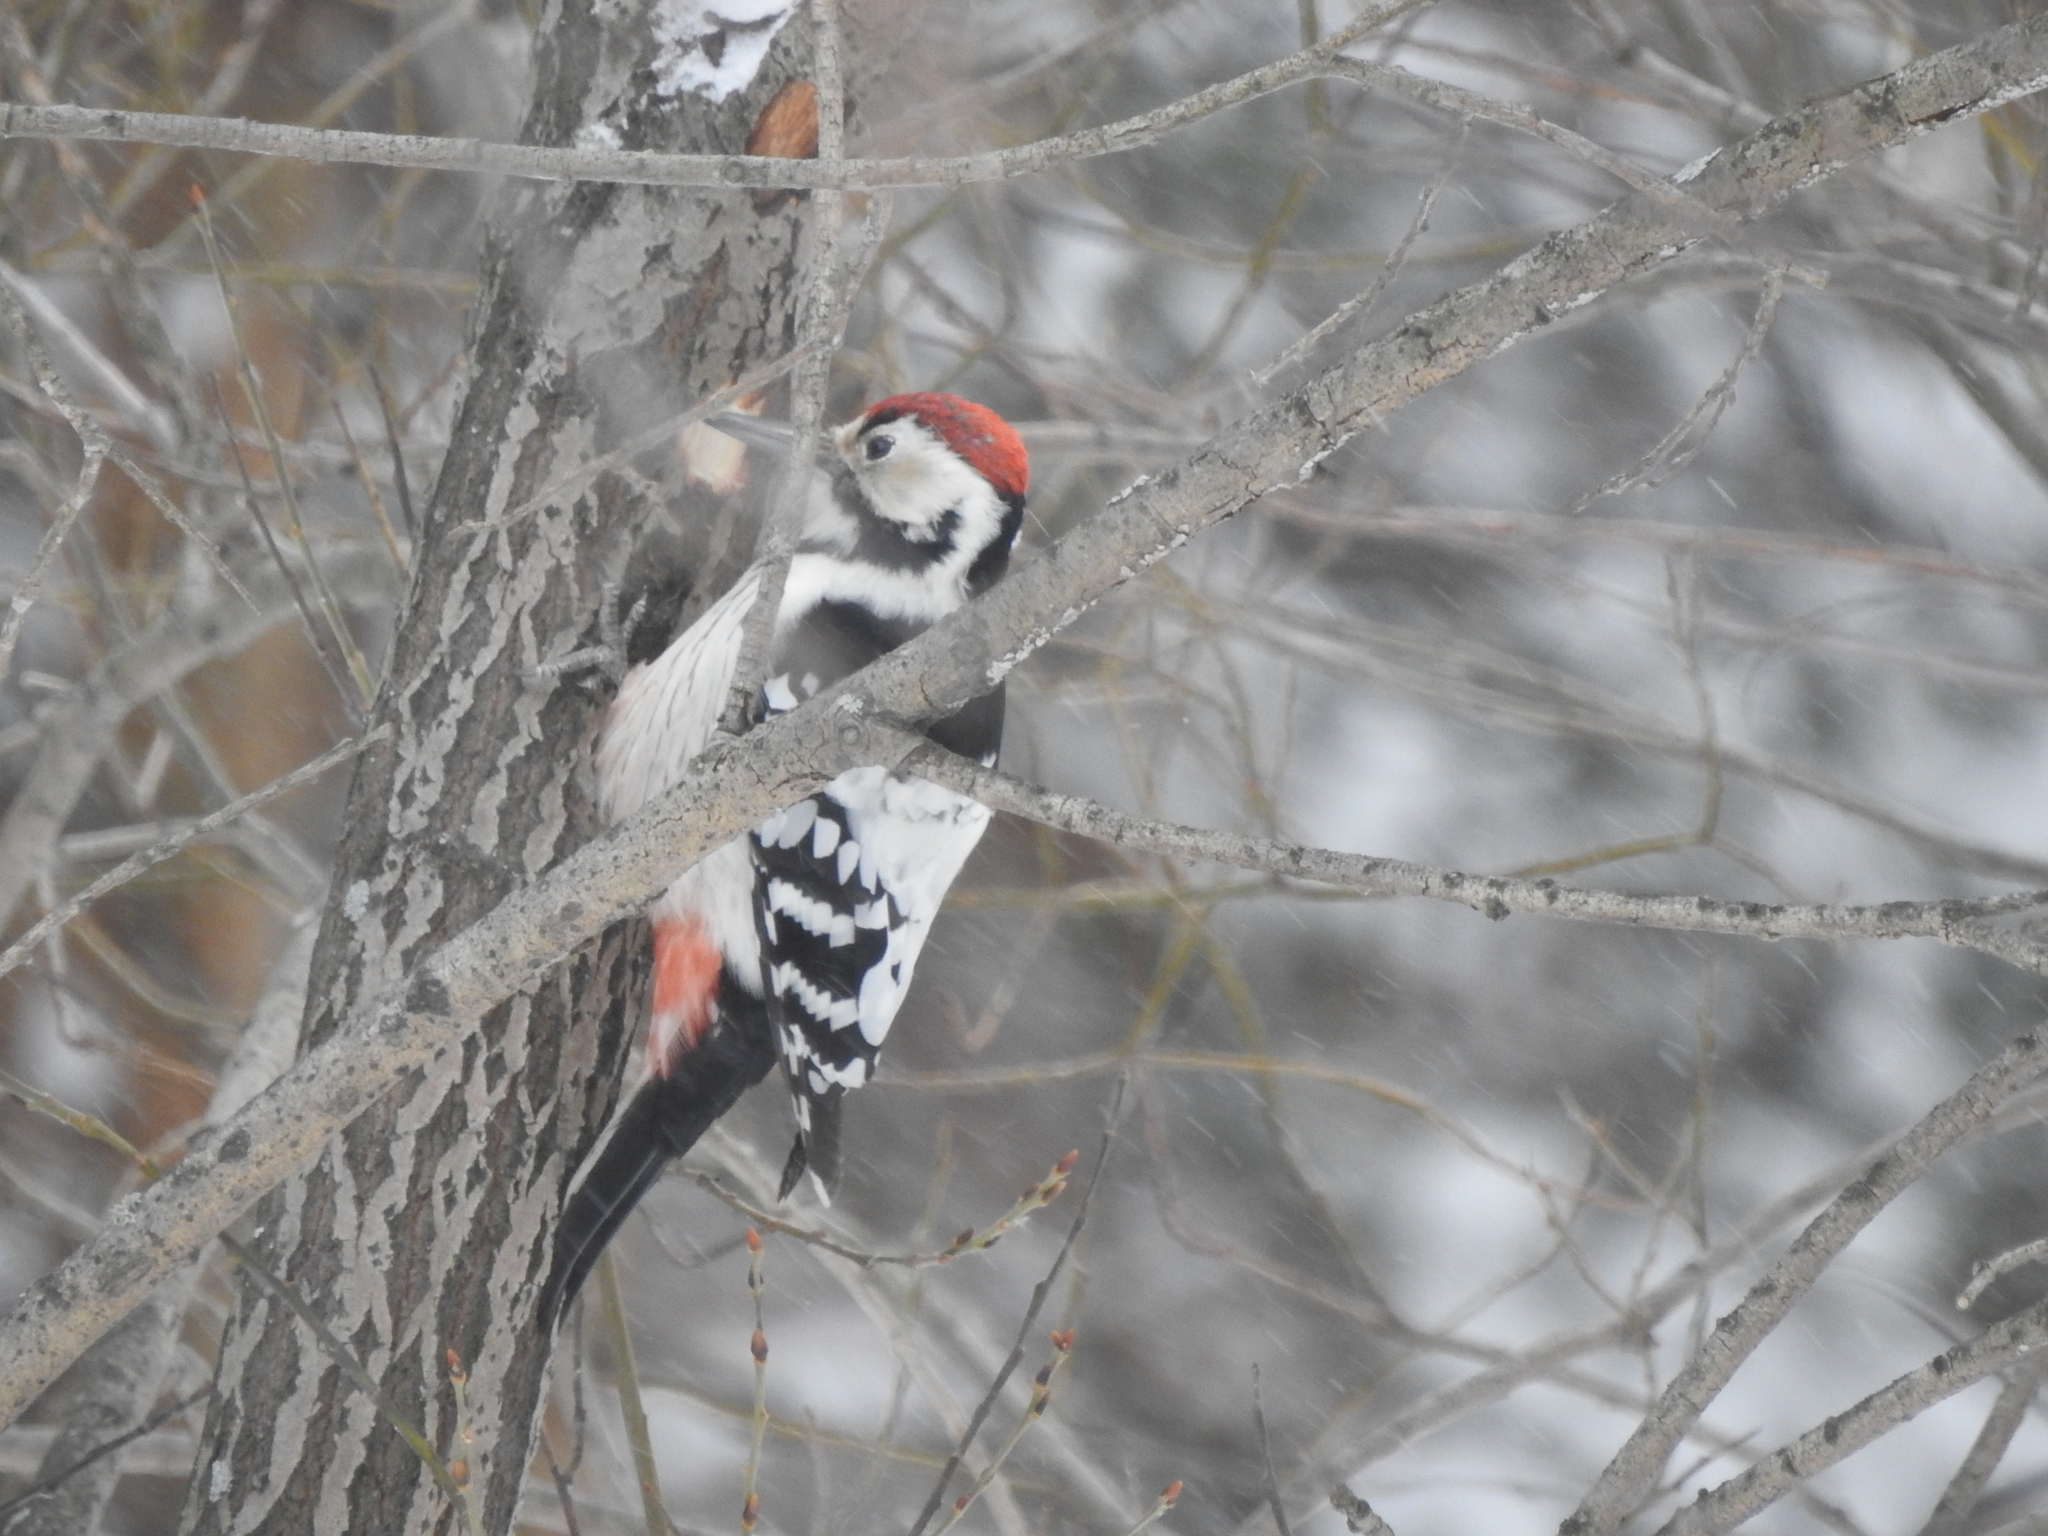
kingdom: Animalia
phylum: Chordata
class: Aves
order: Piciformes
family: Picidae
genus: Dendrocopos
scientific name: Dendrocopos leucotos
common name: White-backed woodpecker
